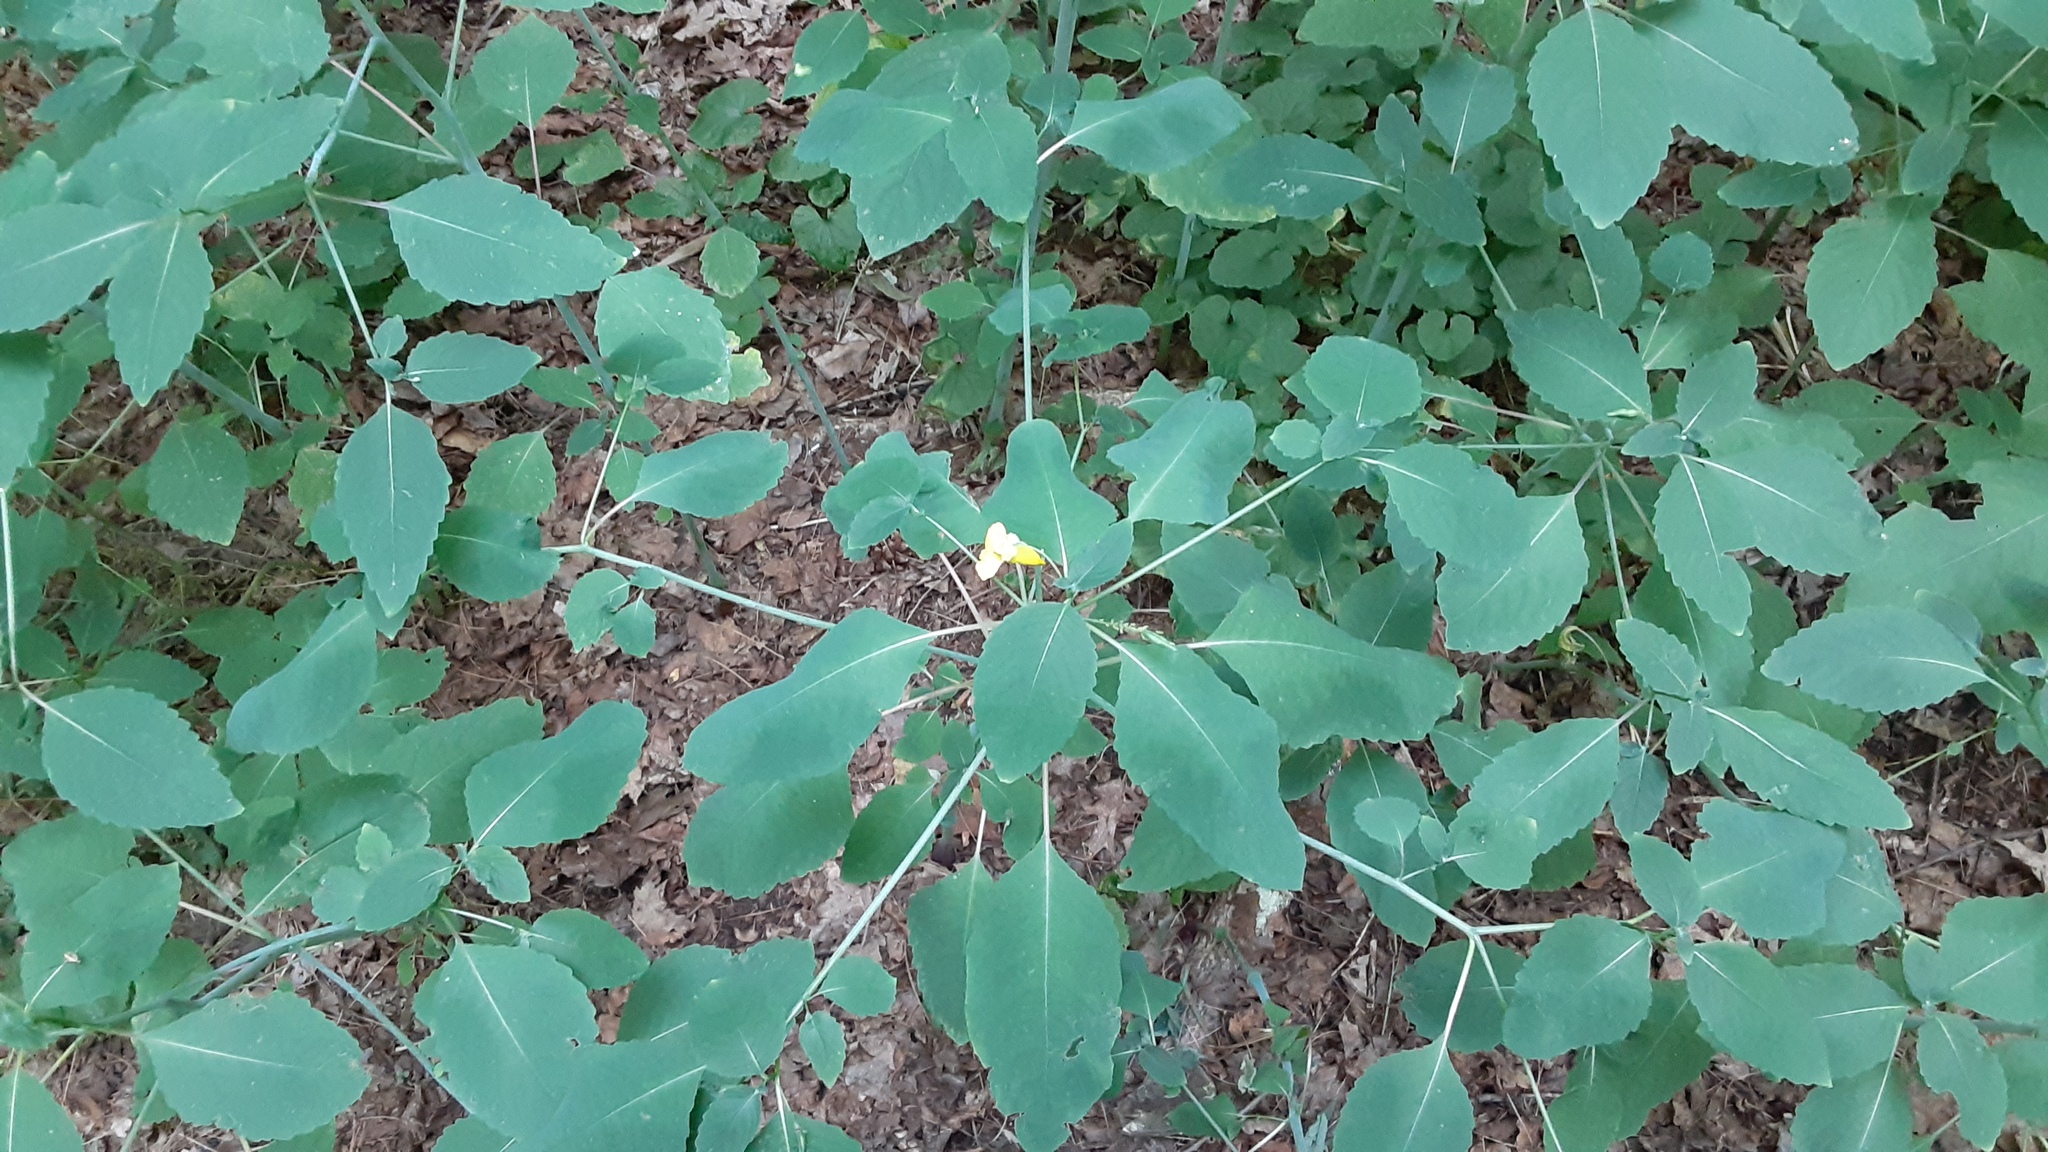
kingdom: Plantae
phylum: Tracheophyta
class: Magnoliopsida
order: Ericales
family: Balsaminaceae
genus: Impatiens
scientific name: Impatiens pallida
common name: Pale snapweed
